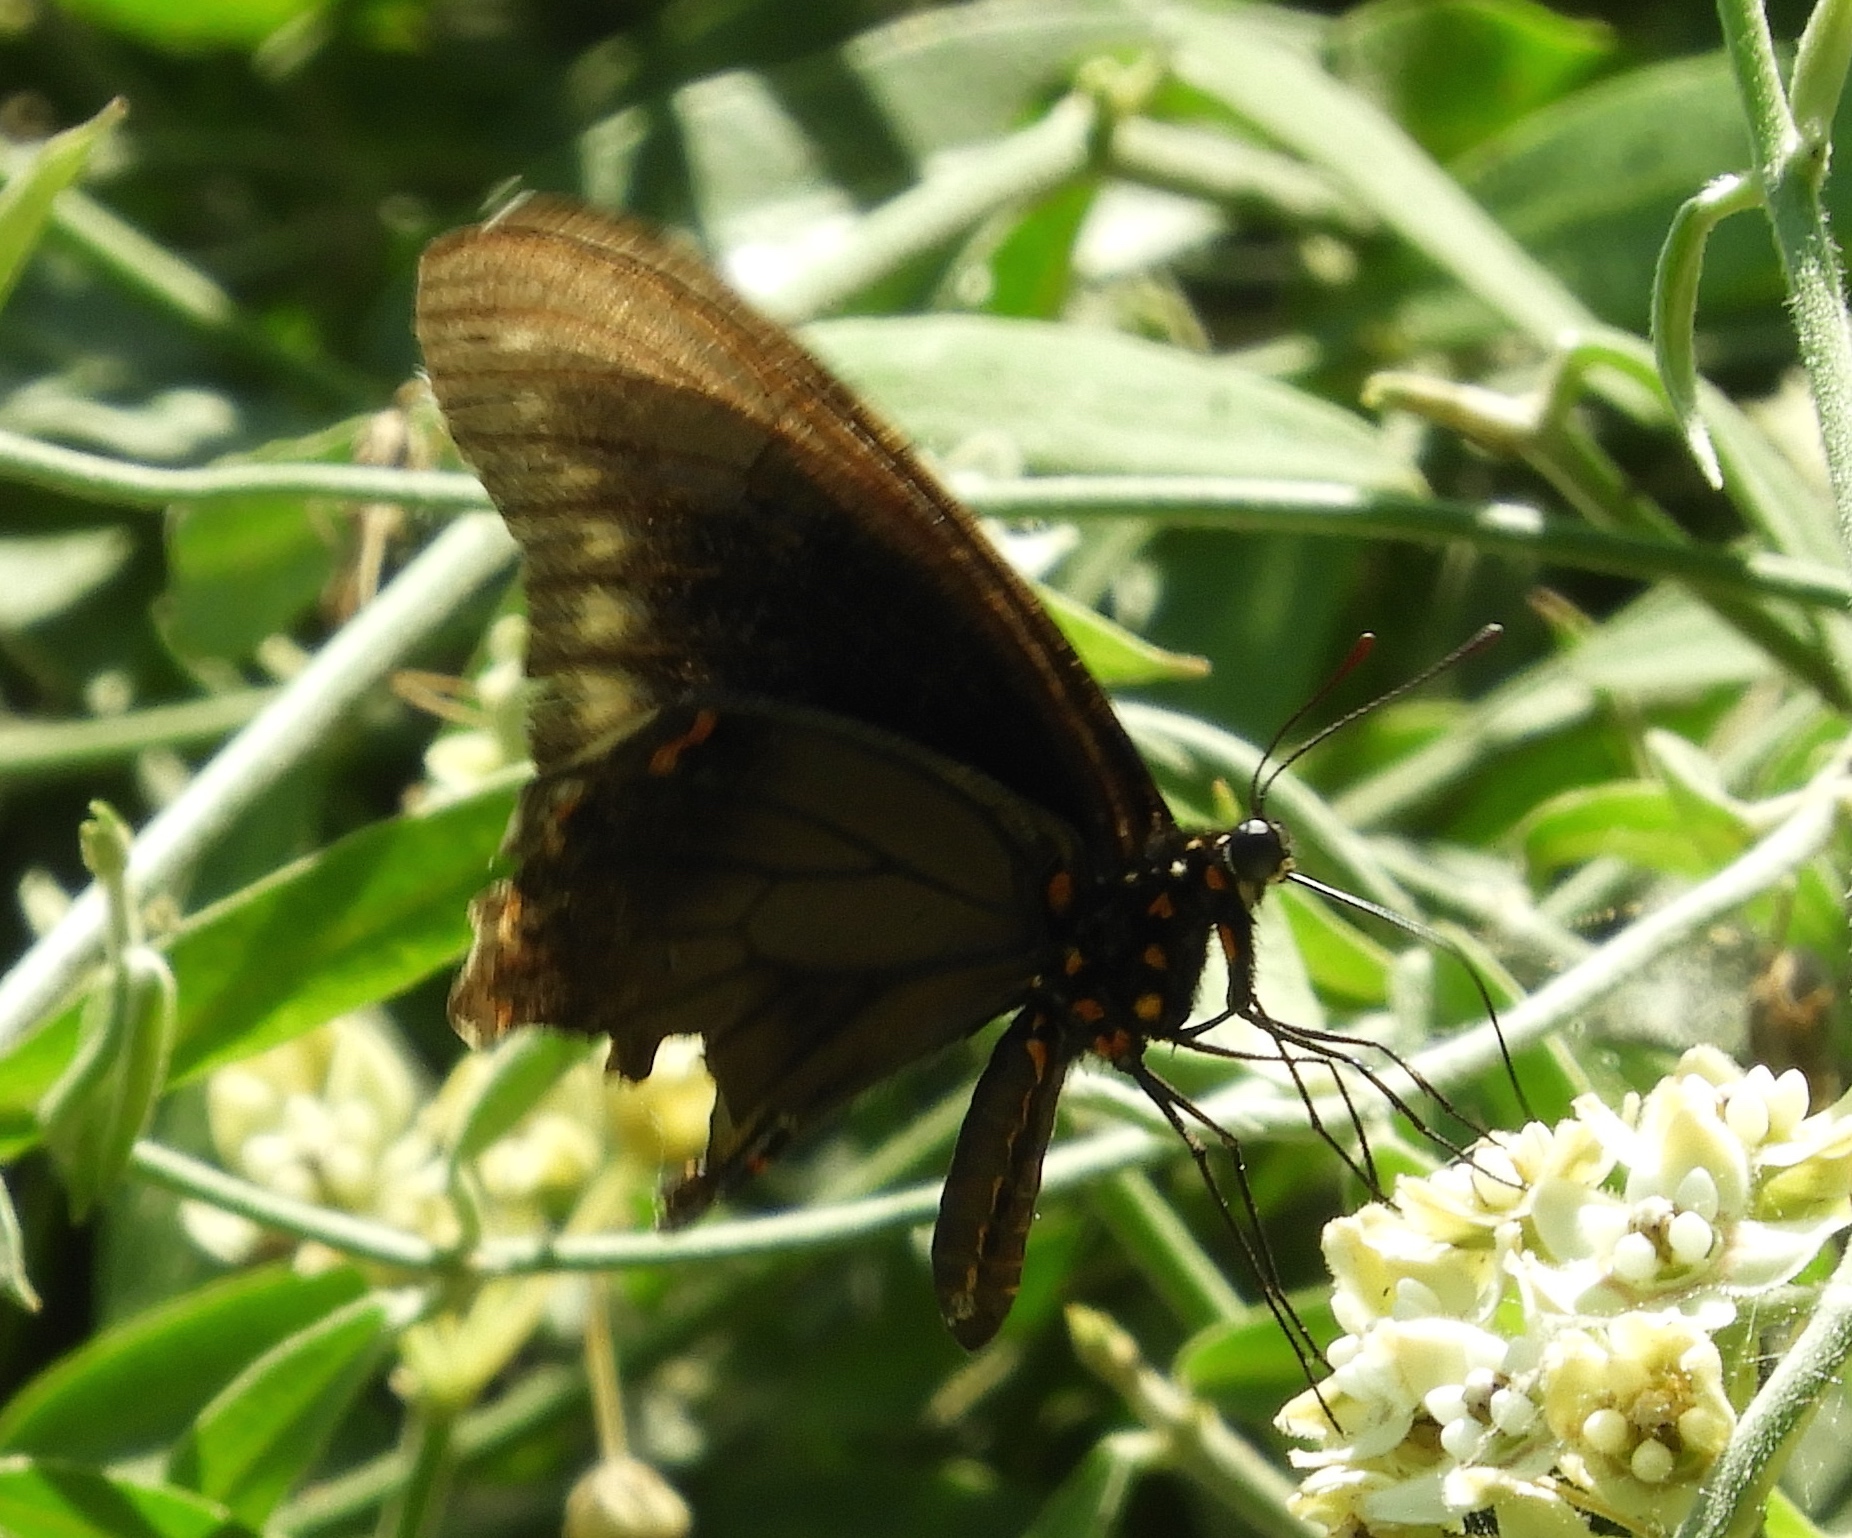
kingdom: Animalia
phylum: Arthropoda
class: Insecta
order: Lepidoptera
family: Papilionidae
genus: Battus
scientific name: Battus polydamas
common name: Polydamas swallowtail
